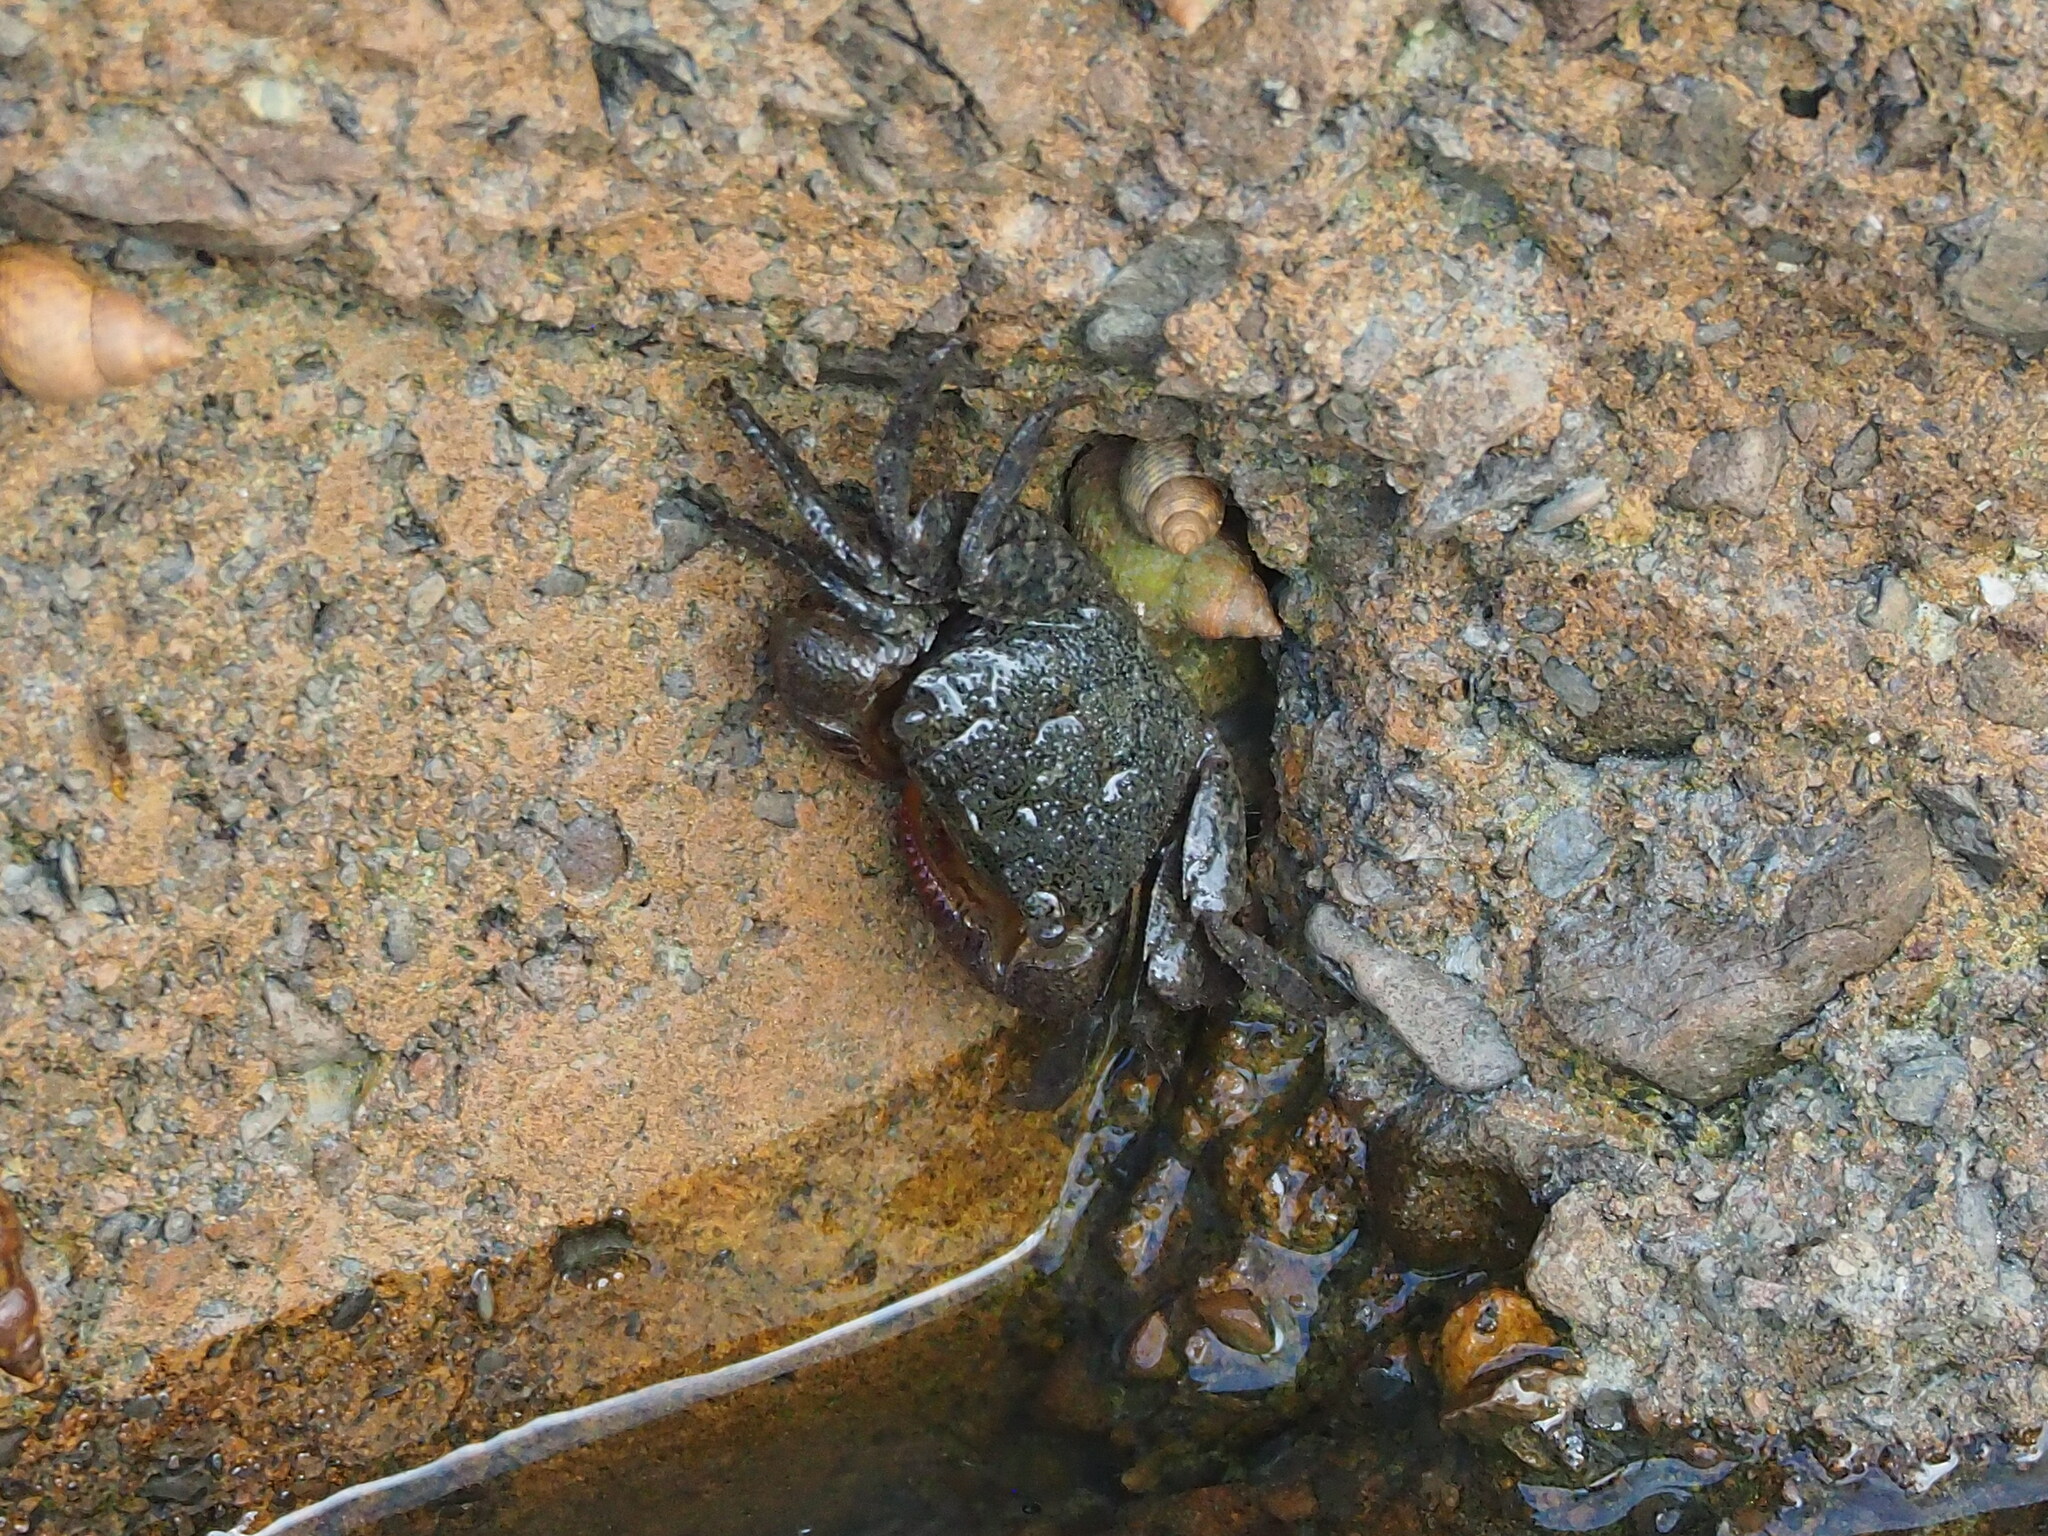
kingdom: Animalia
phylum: Arthropoda
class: Malacostraca
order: Decapoda
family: Sesarmidae
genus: Parasesarma
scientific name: Parasesarma insulare
